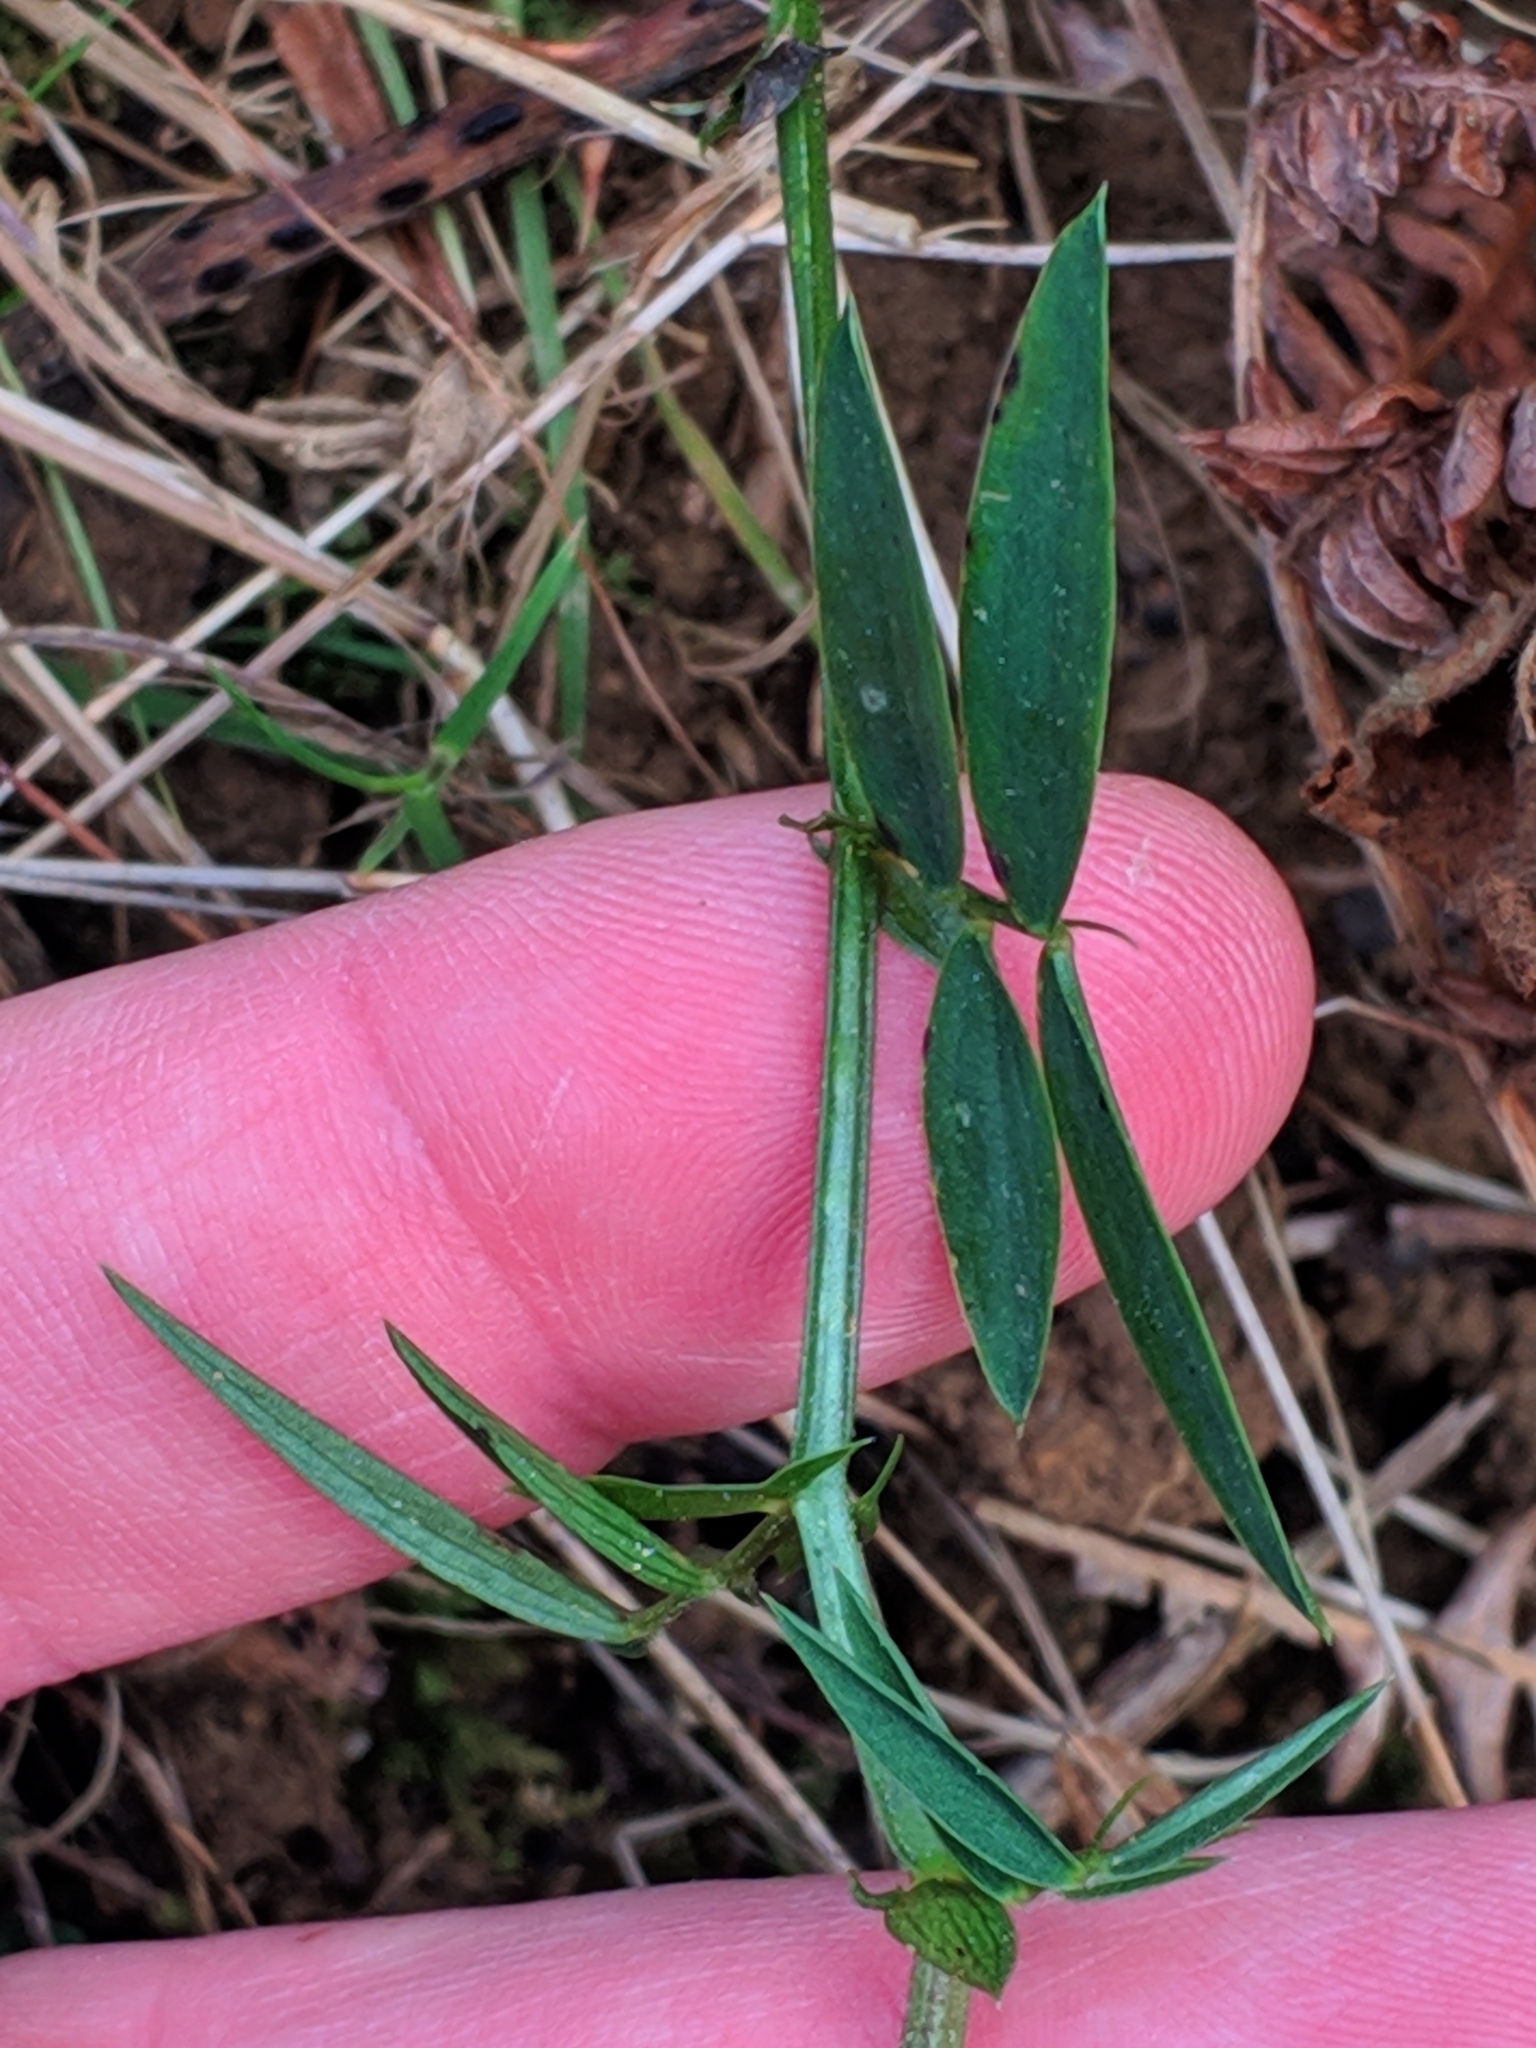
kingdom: Plantae
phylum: Tracheophyta
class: Magnoliopsida
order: Fabales
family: Fabaceae
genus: Lathyrus
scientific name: Lathyrus linifolius
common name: Bitter-vetch
